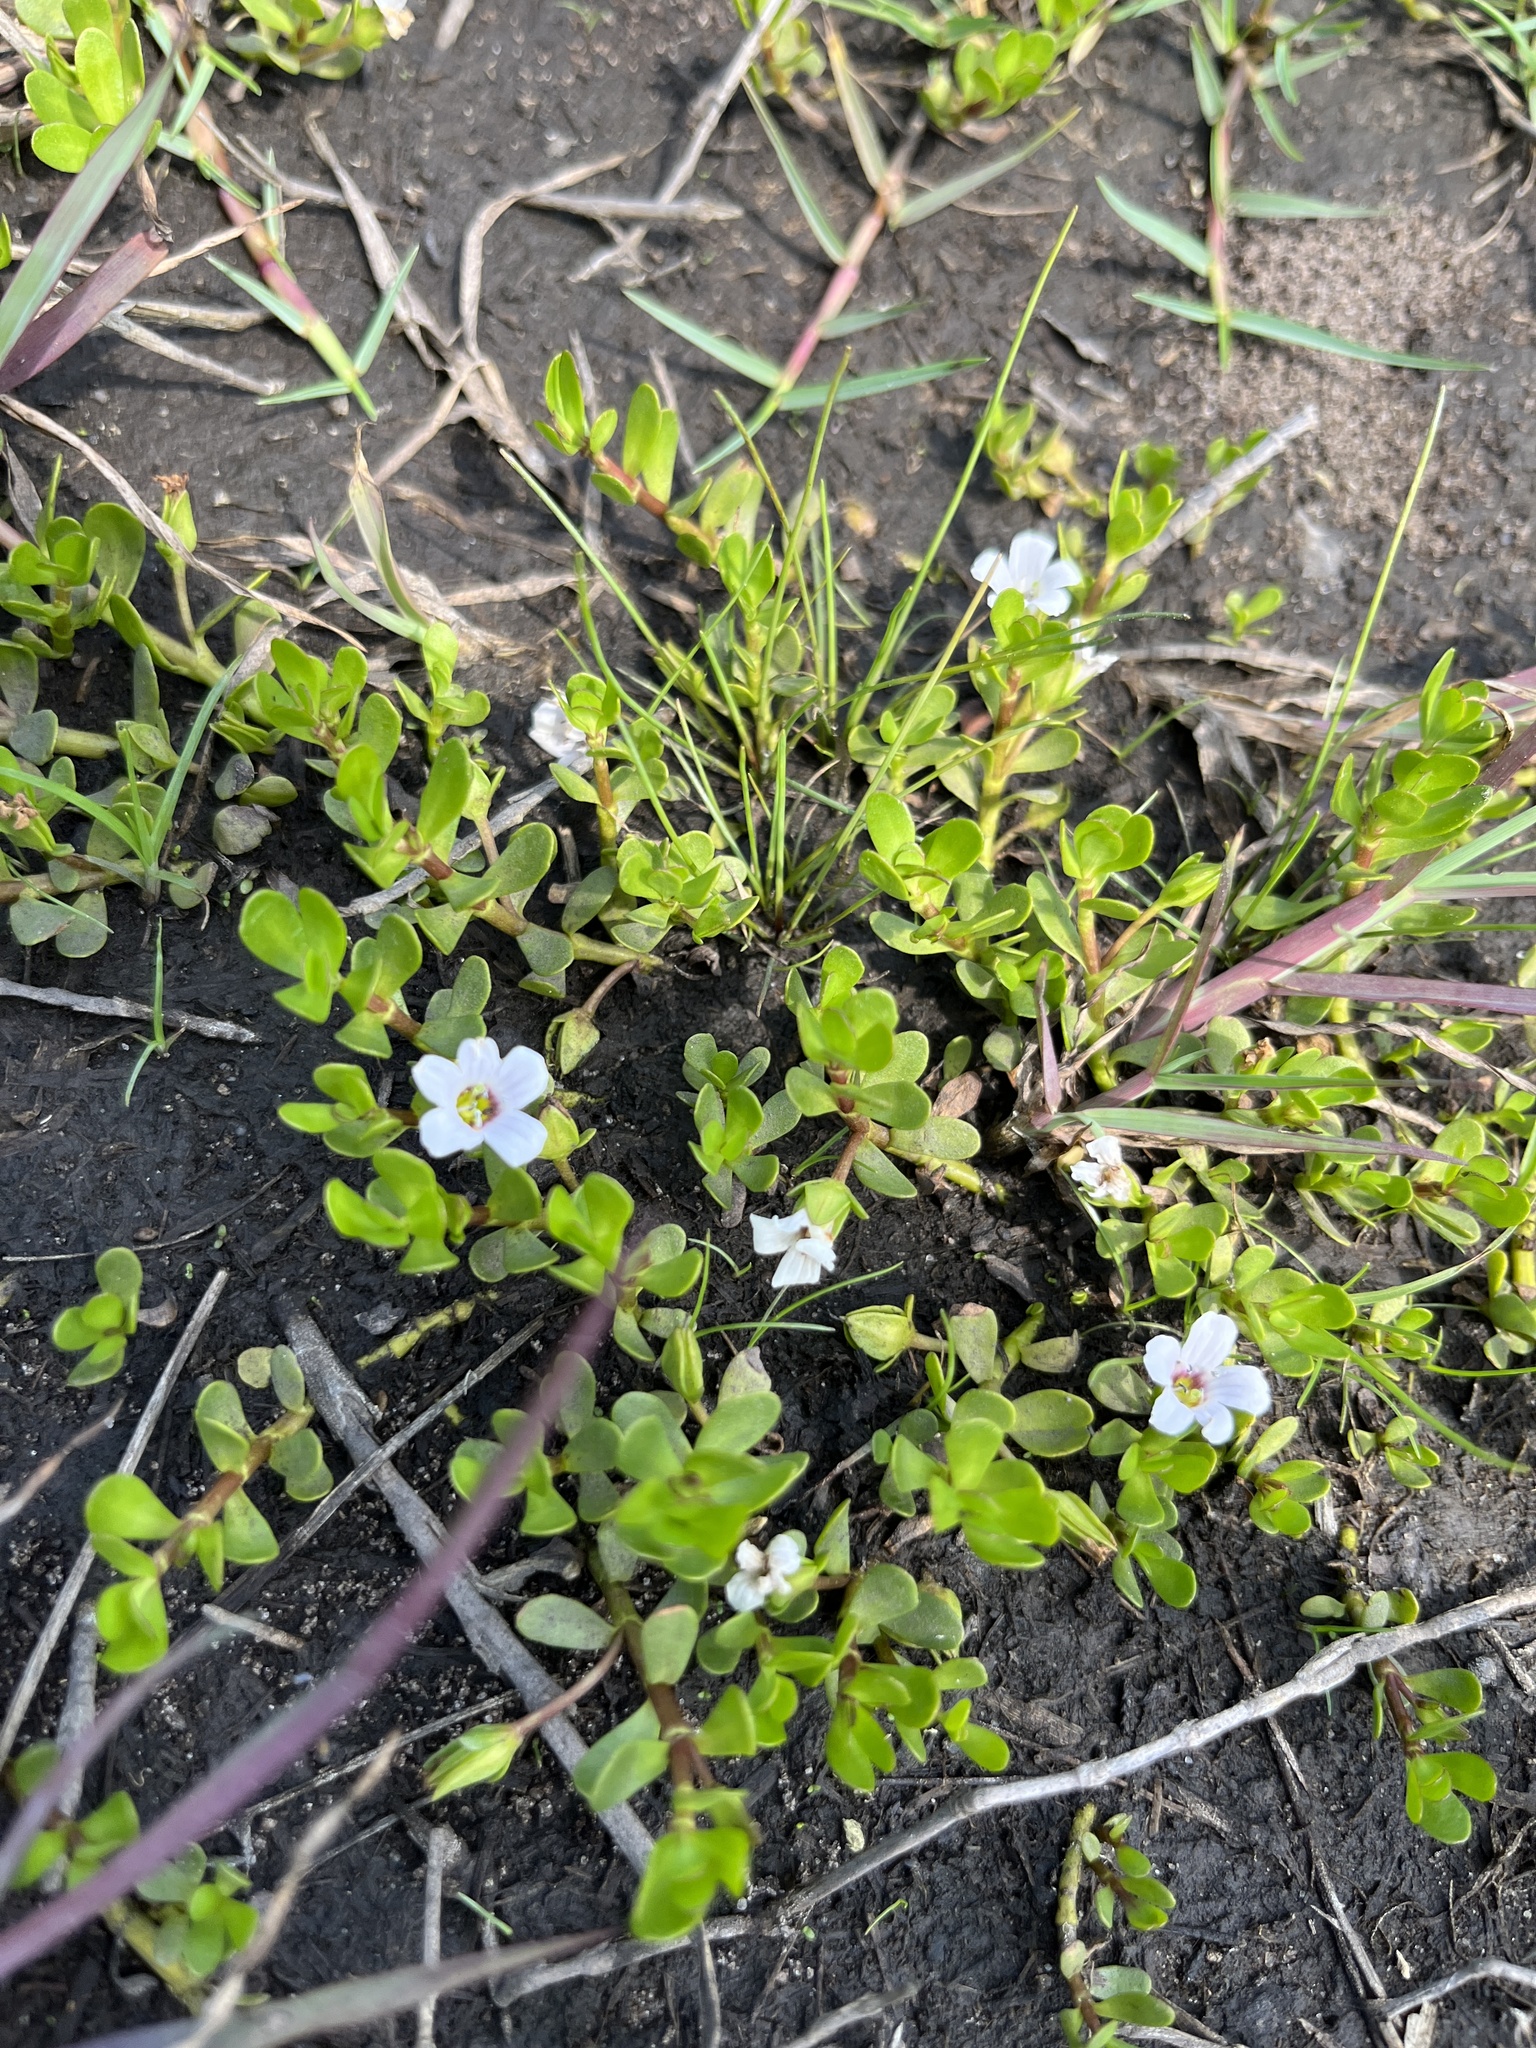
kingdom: Plantae
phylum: Tracheophyta
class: Magnoliopsida
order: Lamiales
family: Plantaginaceae
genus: Bacopa
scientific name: Bacopa monnieri
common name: Indian-pennywort
